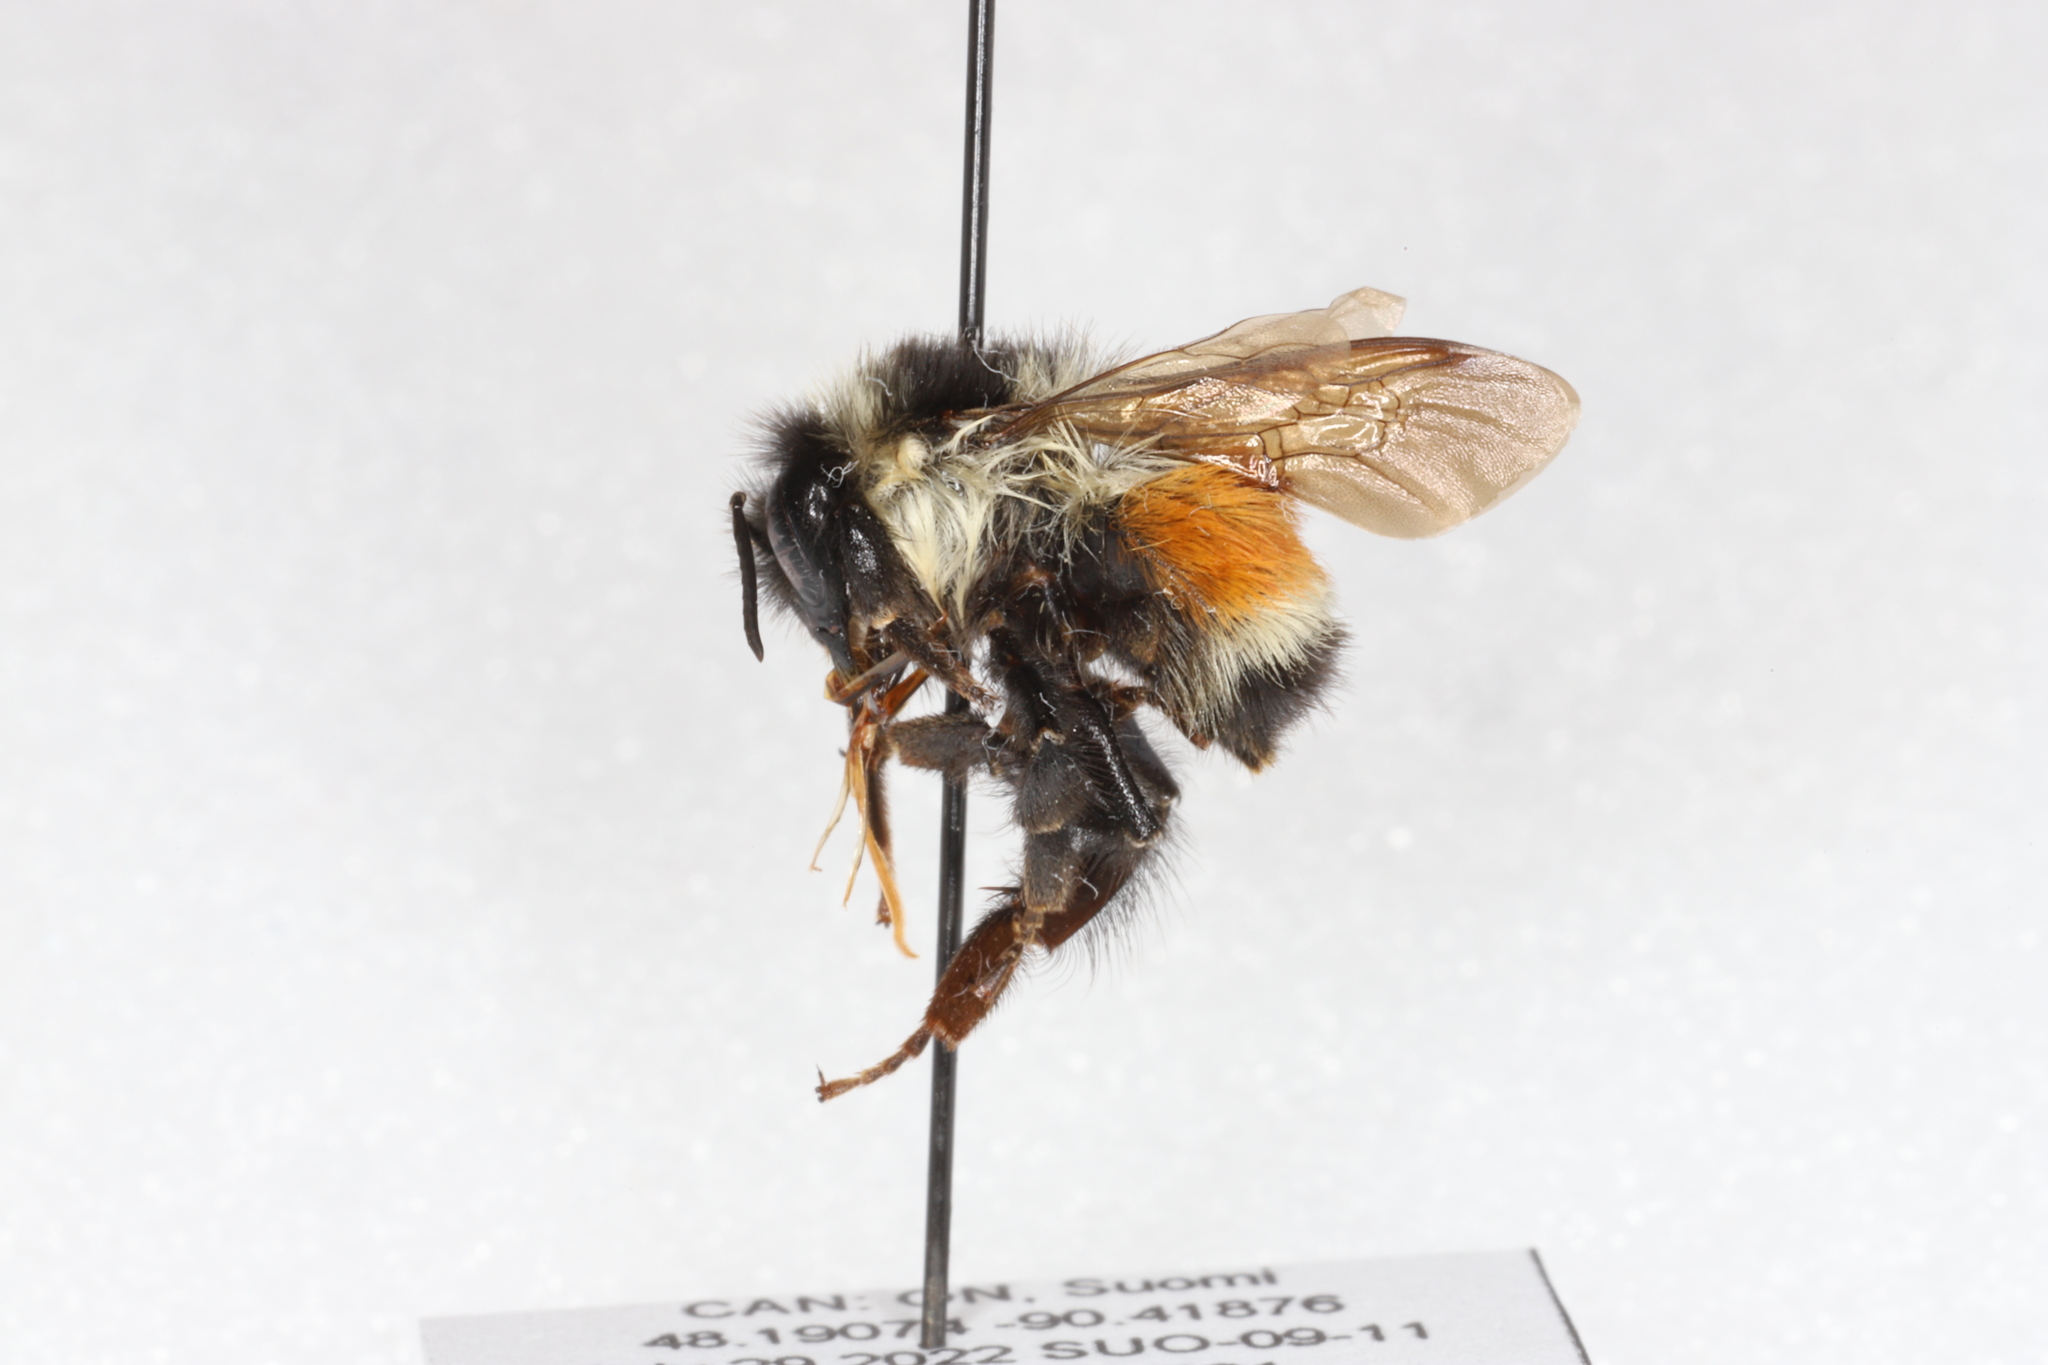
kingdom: Animalia
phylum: Arthropoda
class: Insecta
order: Hymenoptera
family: Apidae
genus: Bombus
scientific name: Bombus ternarius
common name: Tri-colored bumble bee
